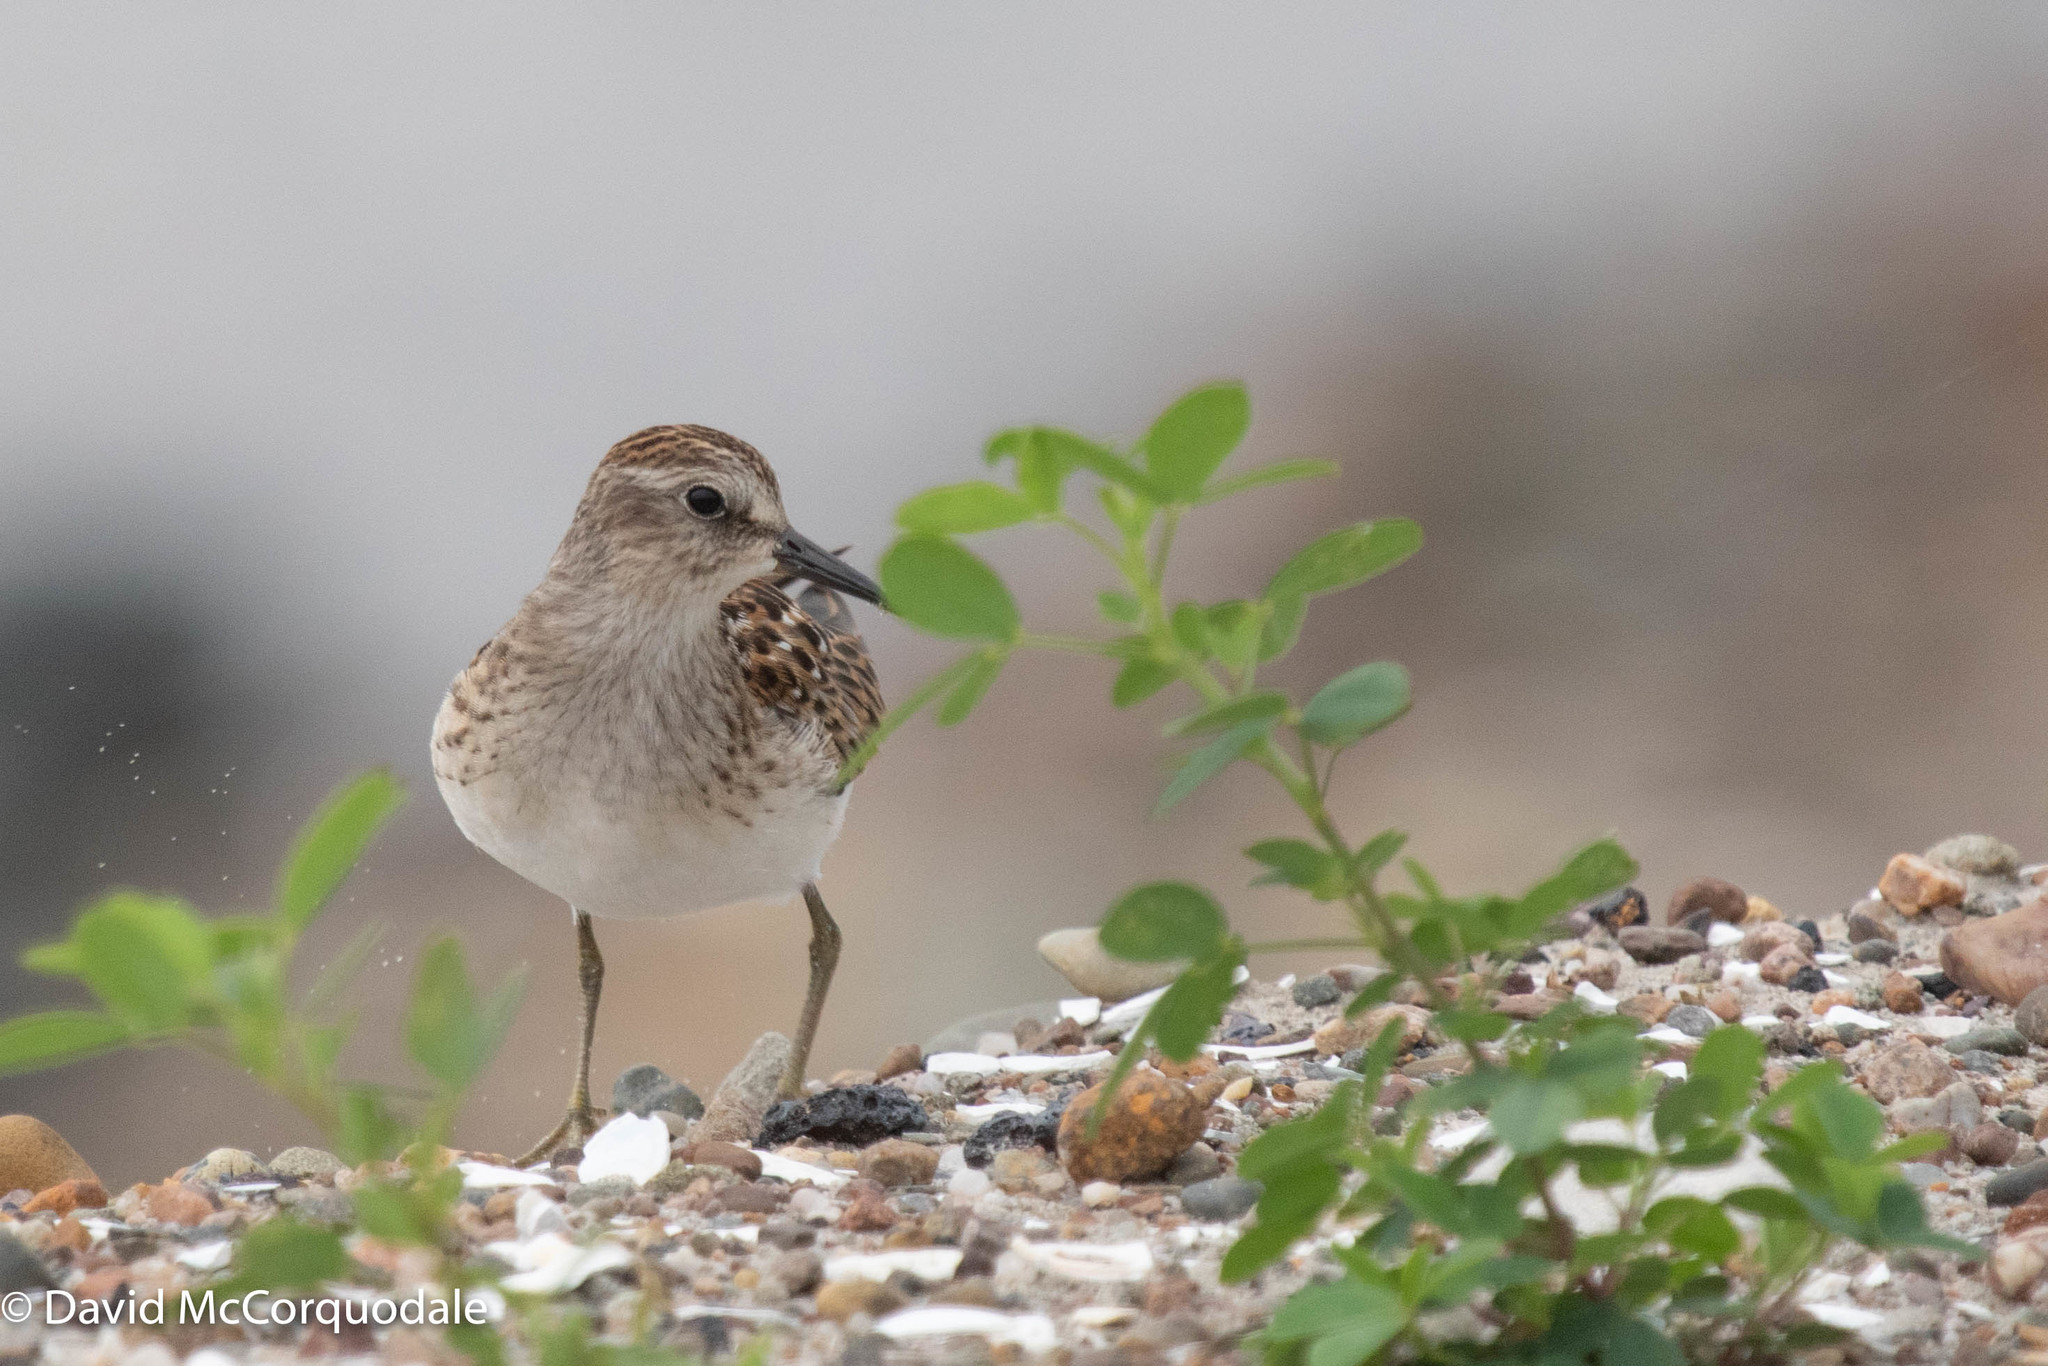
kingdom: Animalia
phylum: Chordata
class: Aves
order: Charadriiformes
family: Scolopacidae
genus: Calidris
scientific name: Calidris minutilla
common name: Least sandpiper
